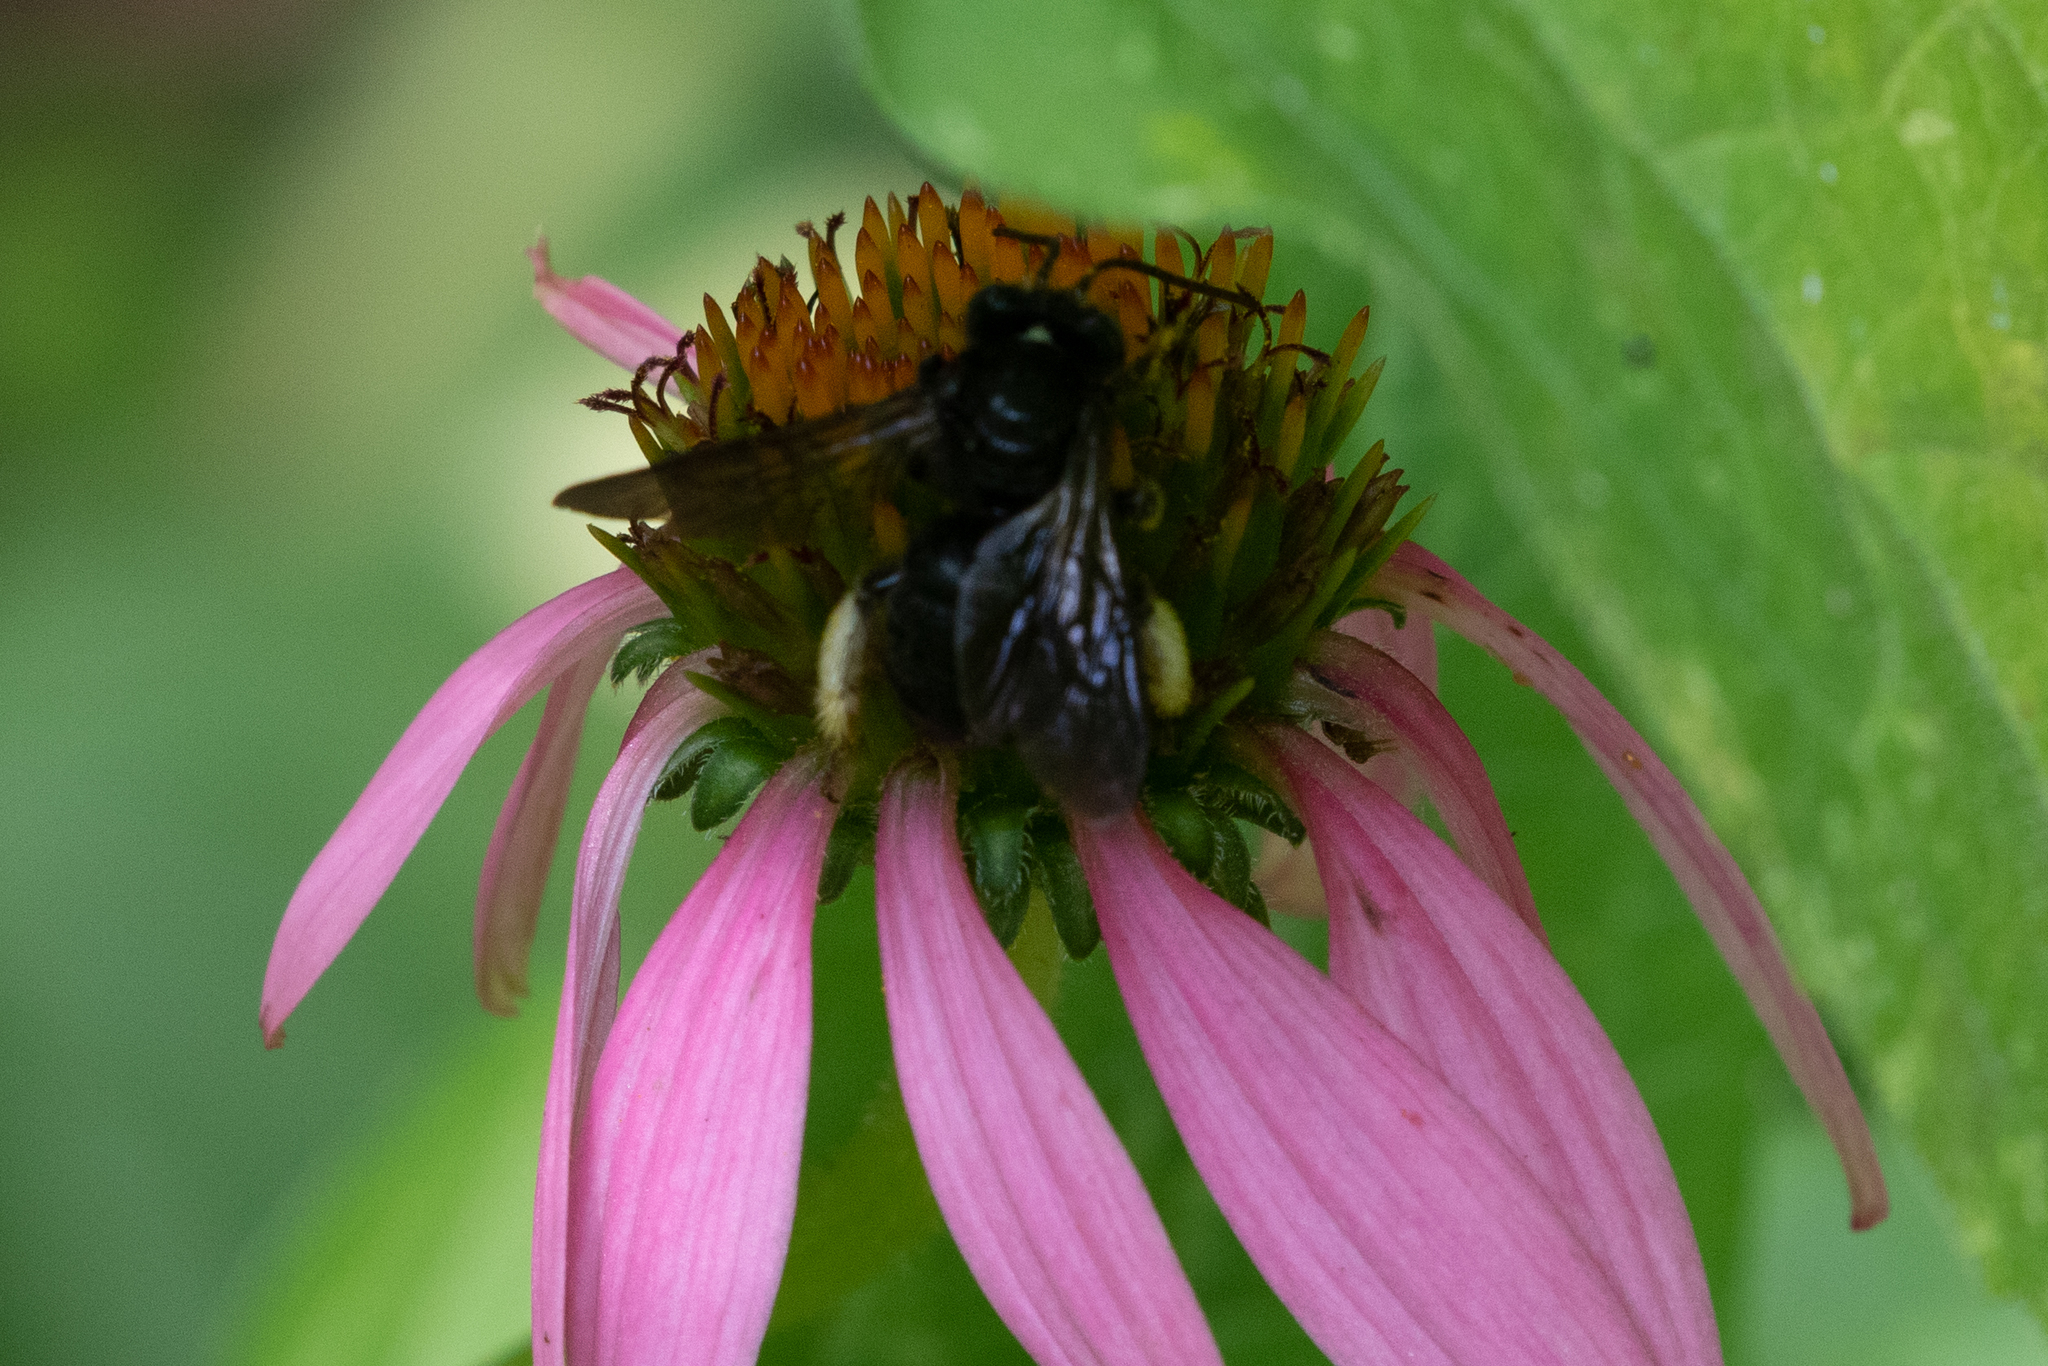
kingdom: Animalia
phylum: Arthropoda
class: Insecta
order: Hymenoptera
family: Apidae
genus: Melissodes
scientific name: Melissodes bimaculatus
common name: Two-spotted long-horned bee
